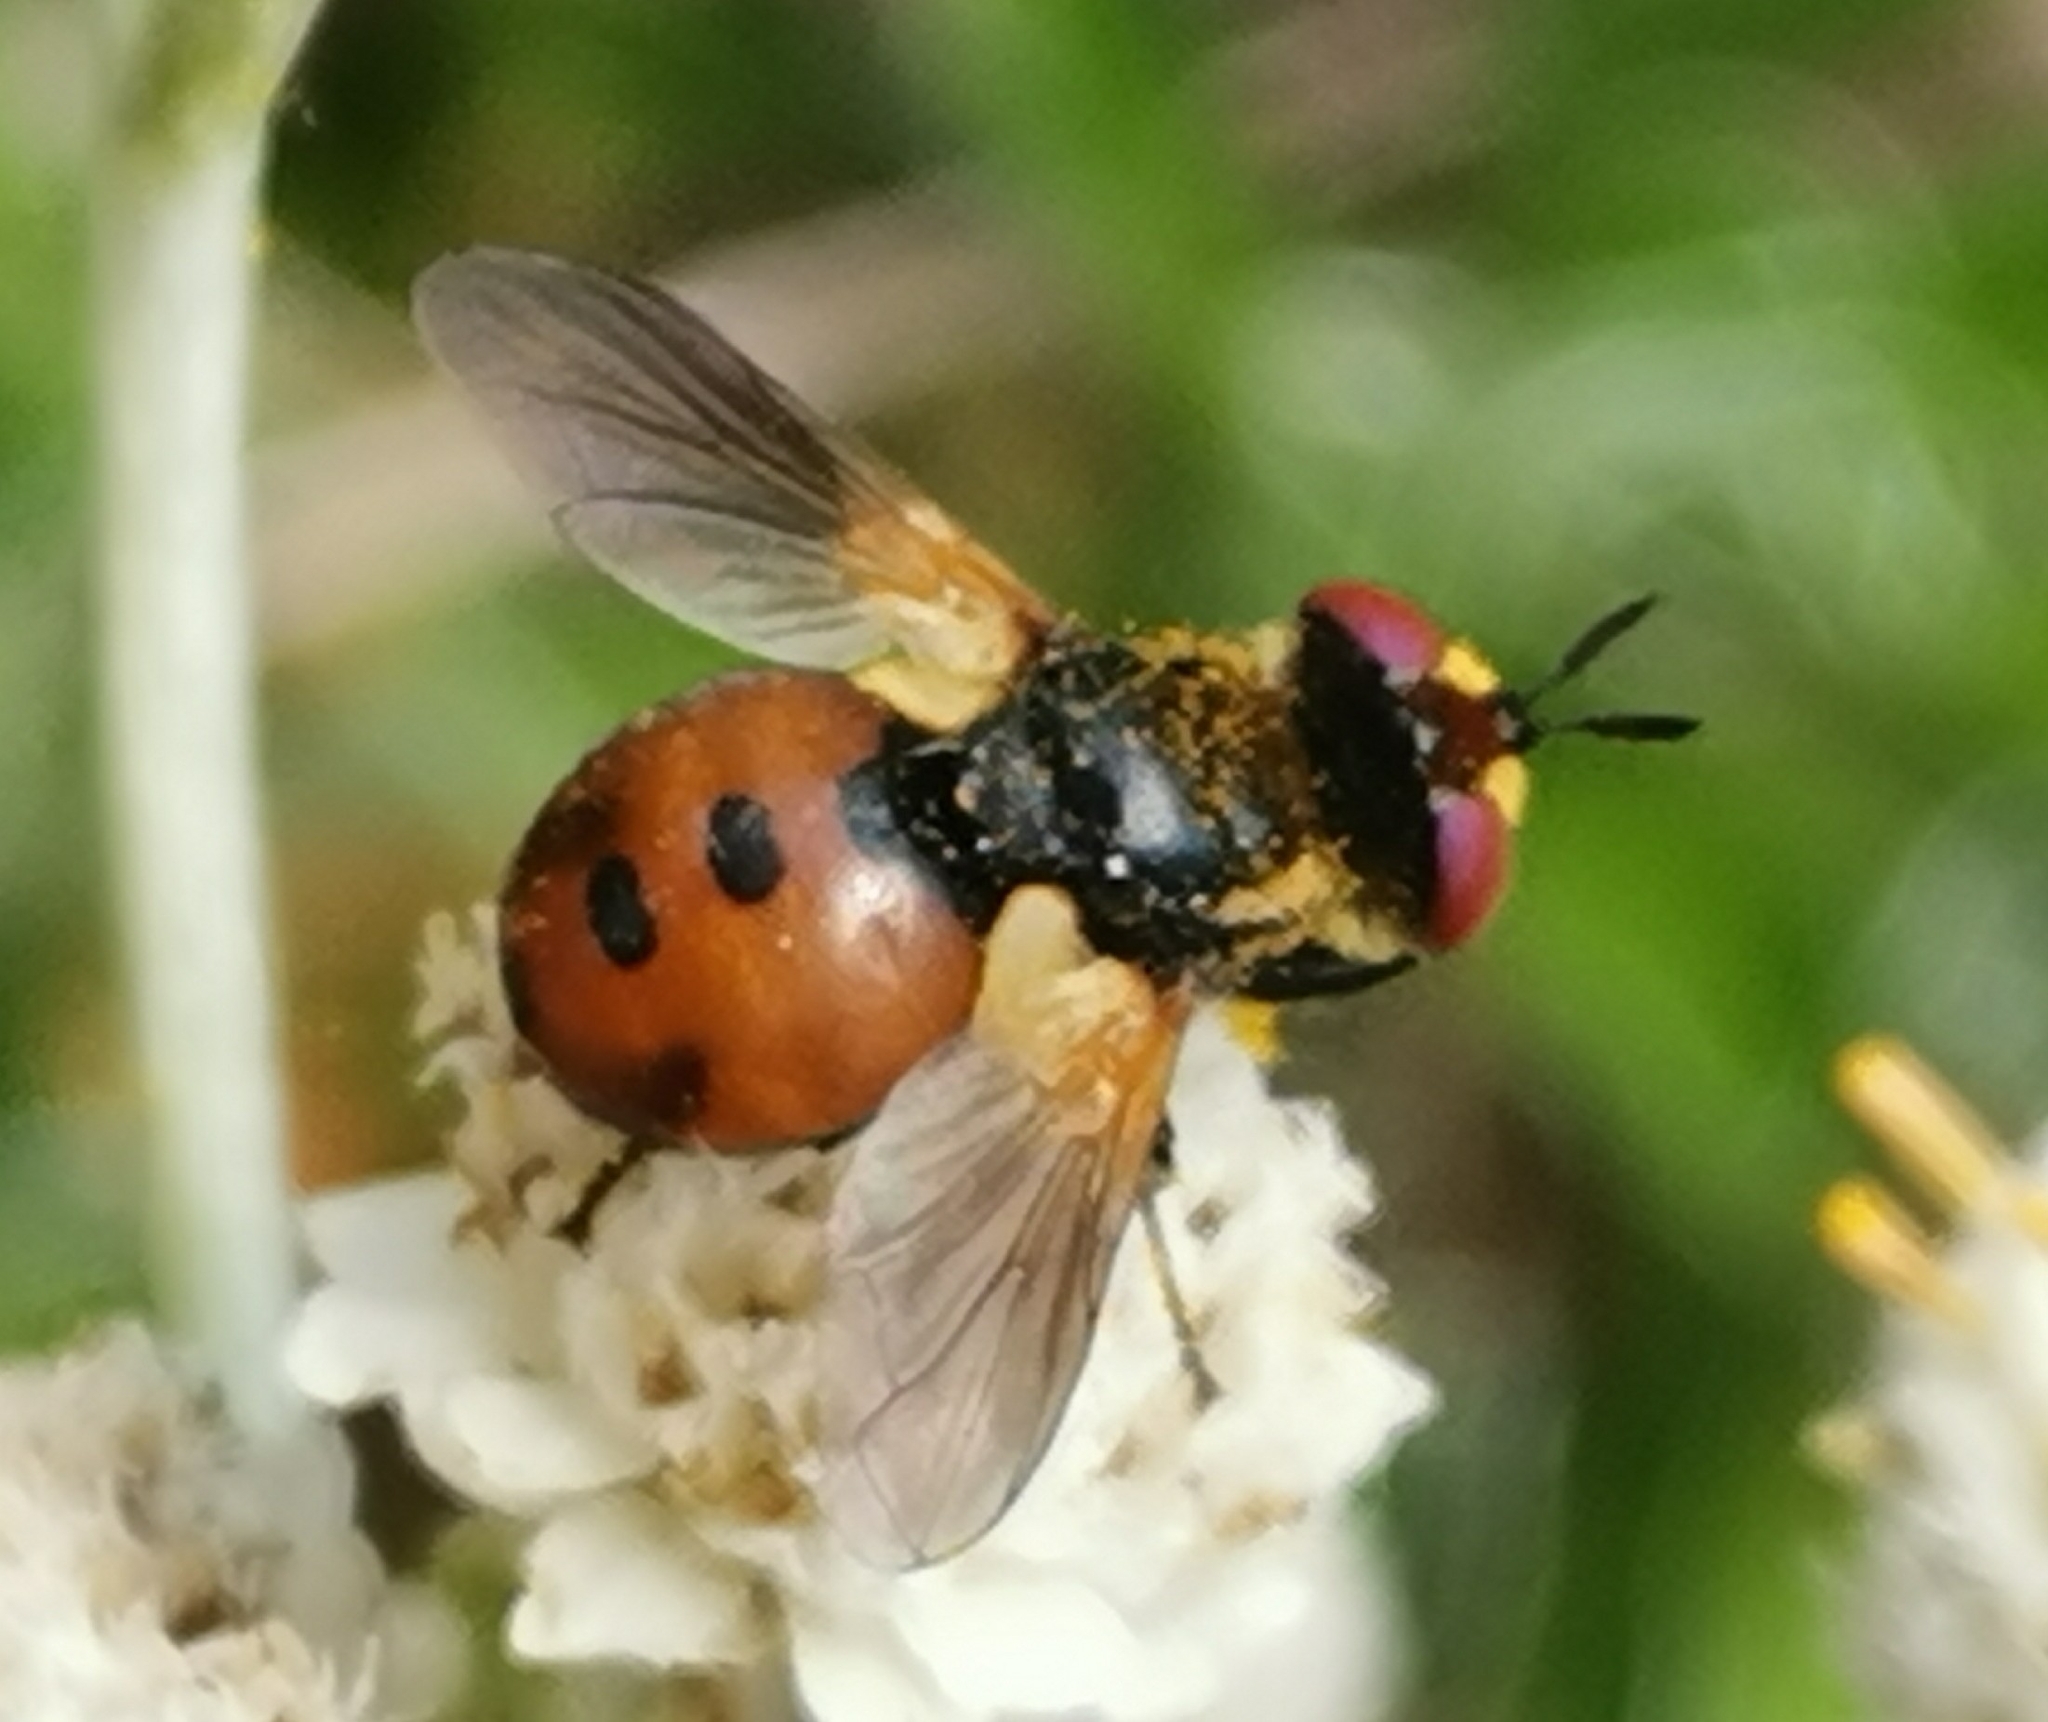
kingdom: Animalia
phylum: Arthropoda
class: Insecta
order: Diptera
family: Tachinidae
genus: Gymnosoma
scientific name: Gymnosoma nudifrons
